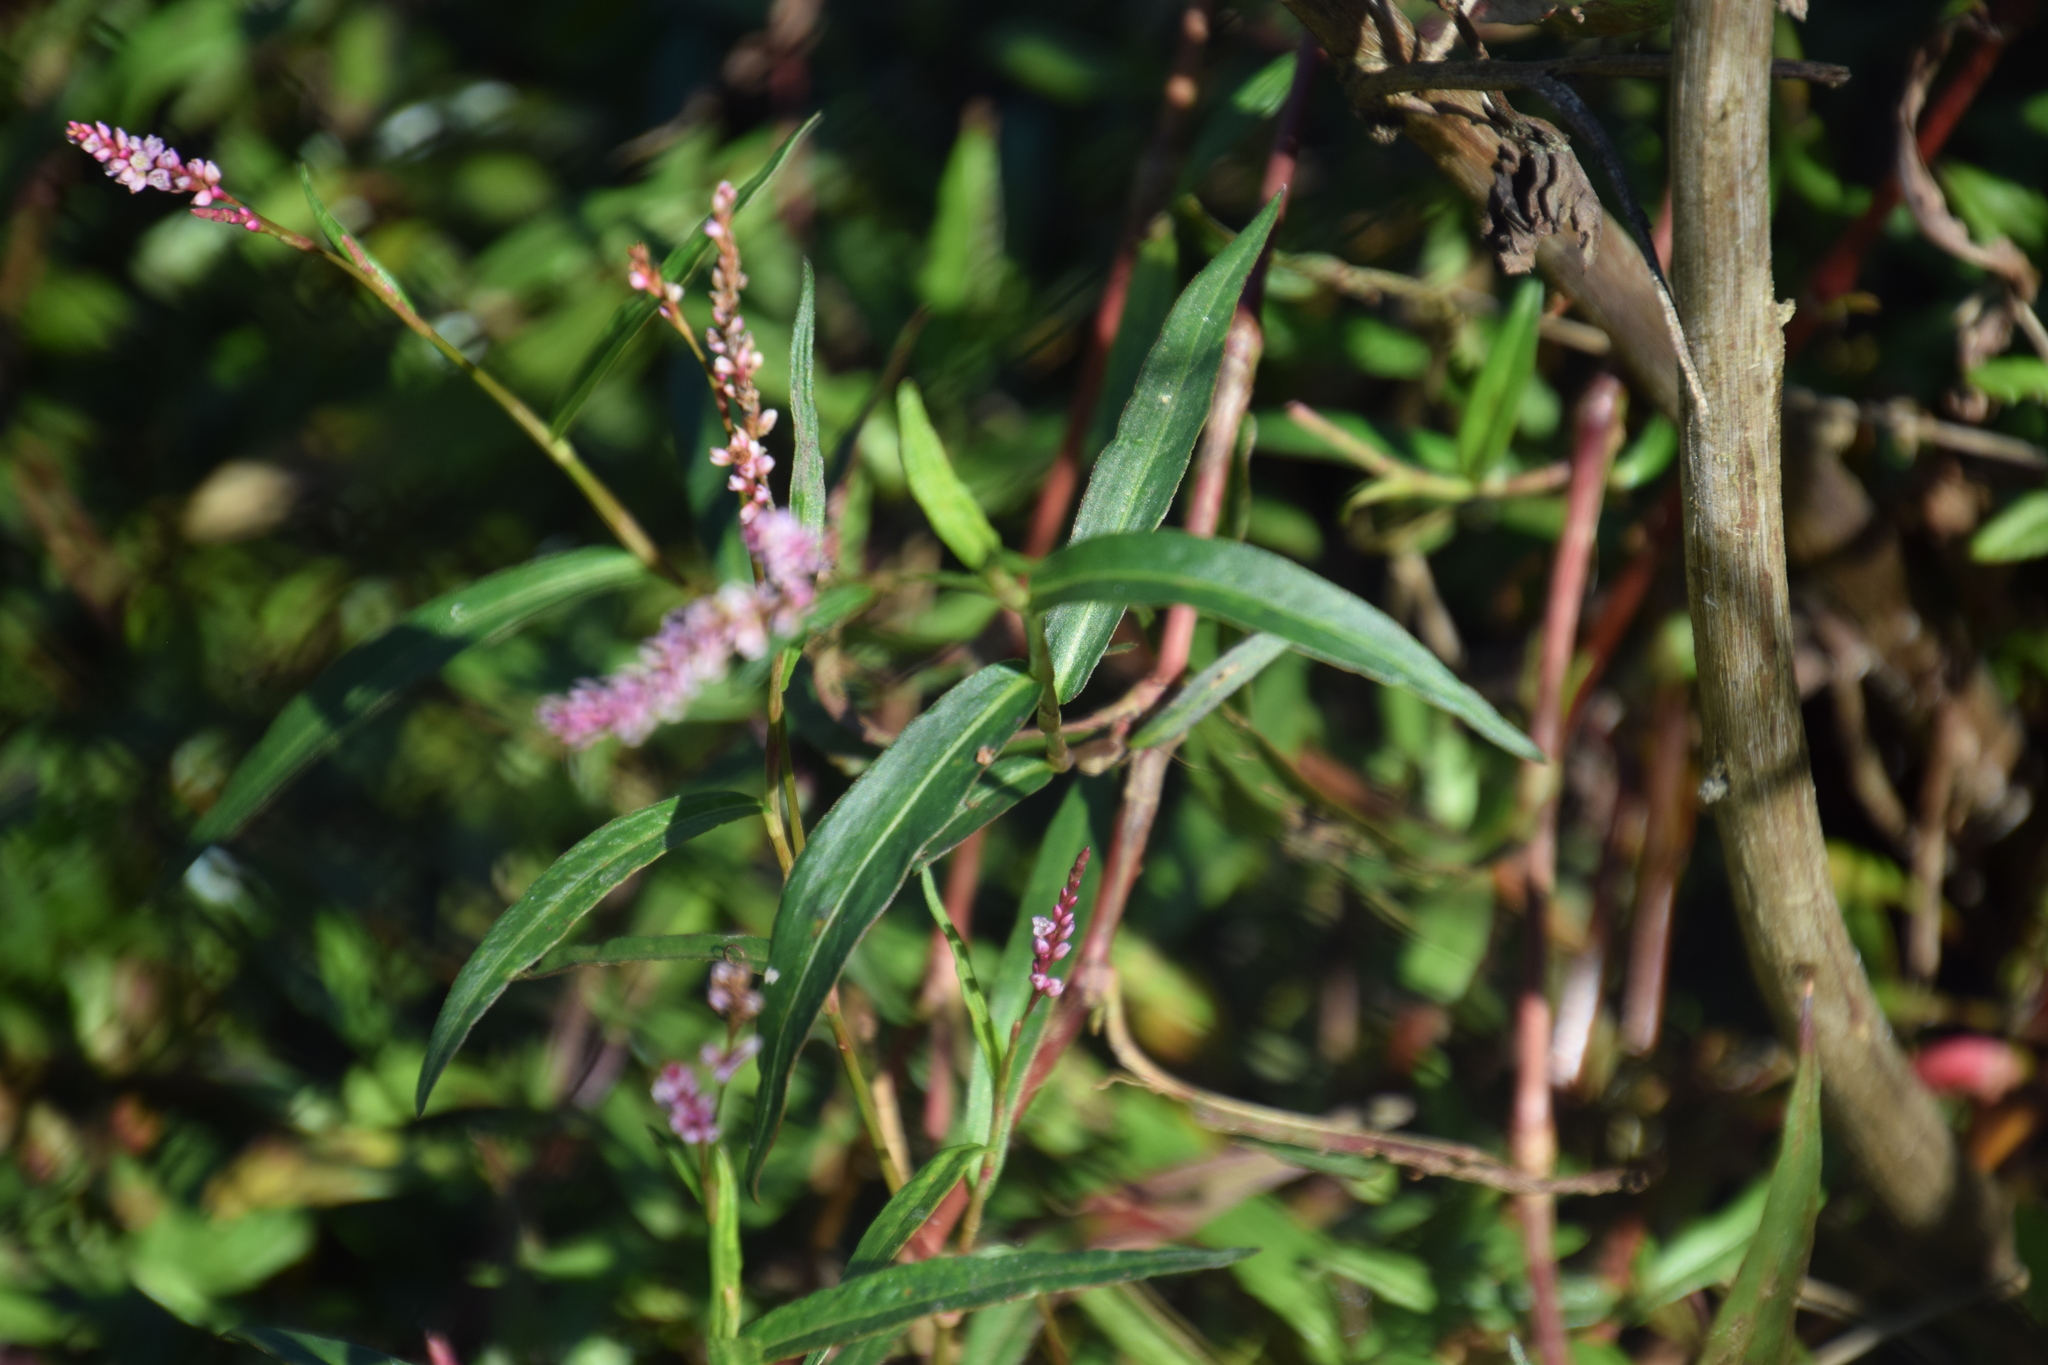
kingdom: Plantae
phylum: Tracheophyta
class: Magnoliopsida
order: Caryophyllales
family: Polygonaceae
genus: Persicaria
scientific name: Persicaria decipiens
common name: Willow-weed
